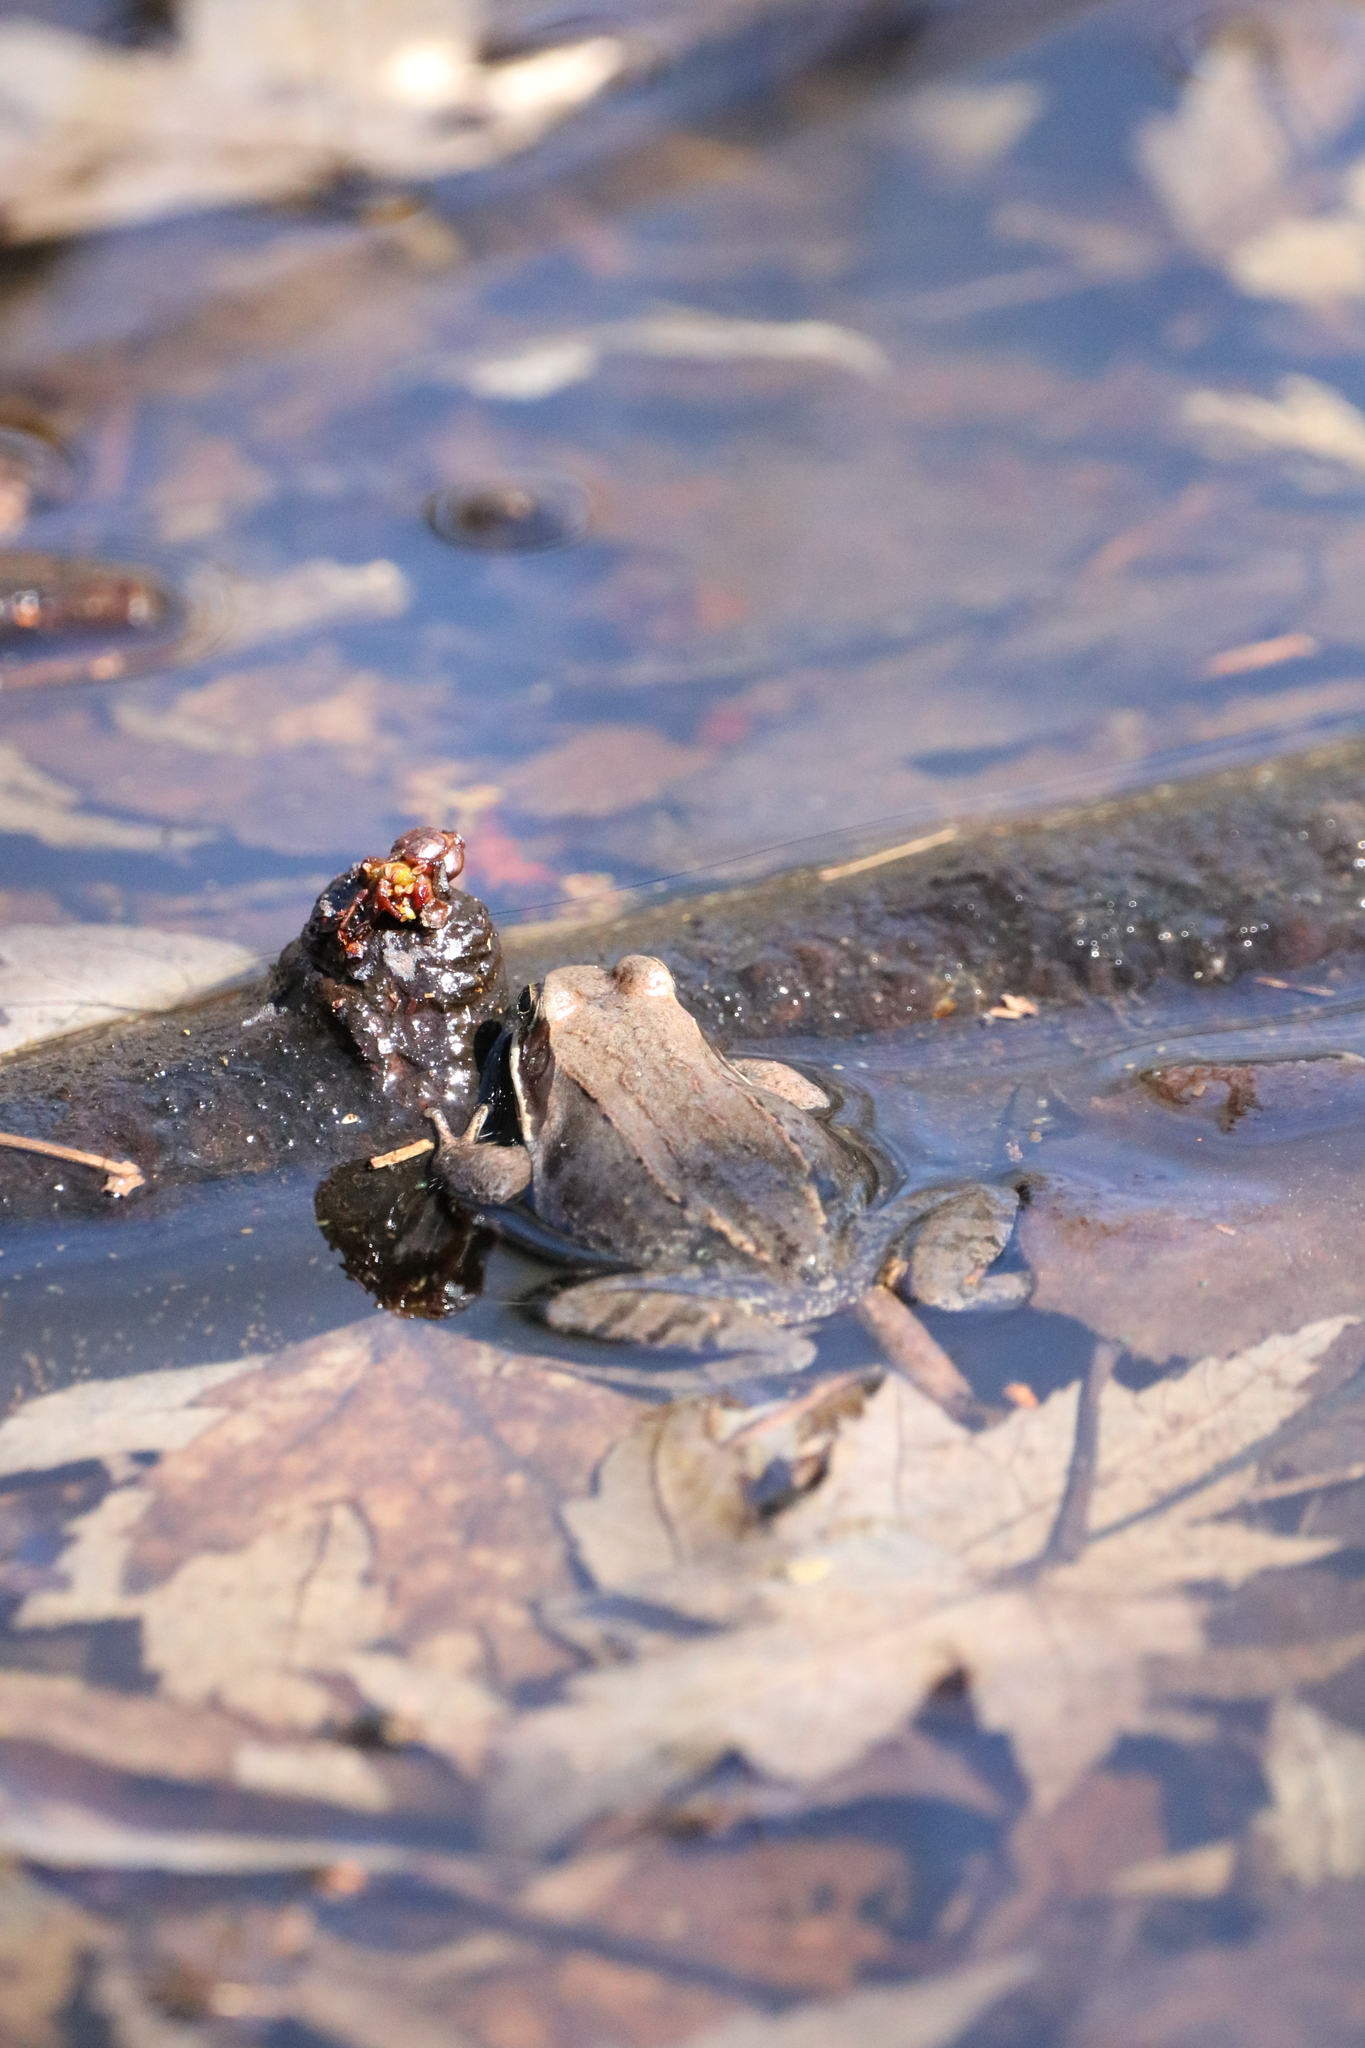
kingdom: Animalia
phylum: Chordata
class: Amphibia
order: Anura
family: Ranidae
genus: Lithobates
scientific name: Lithobates sylvaticus
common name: Wood frog
